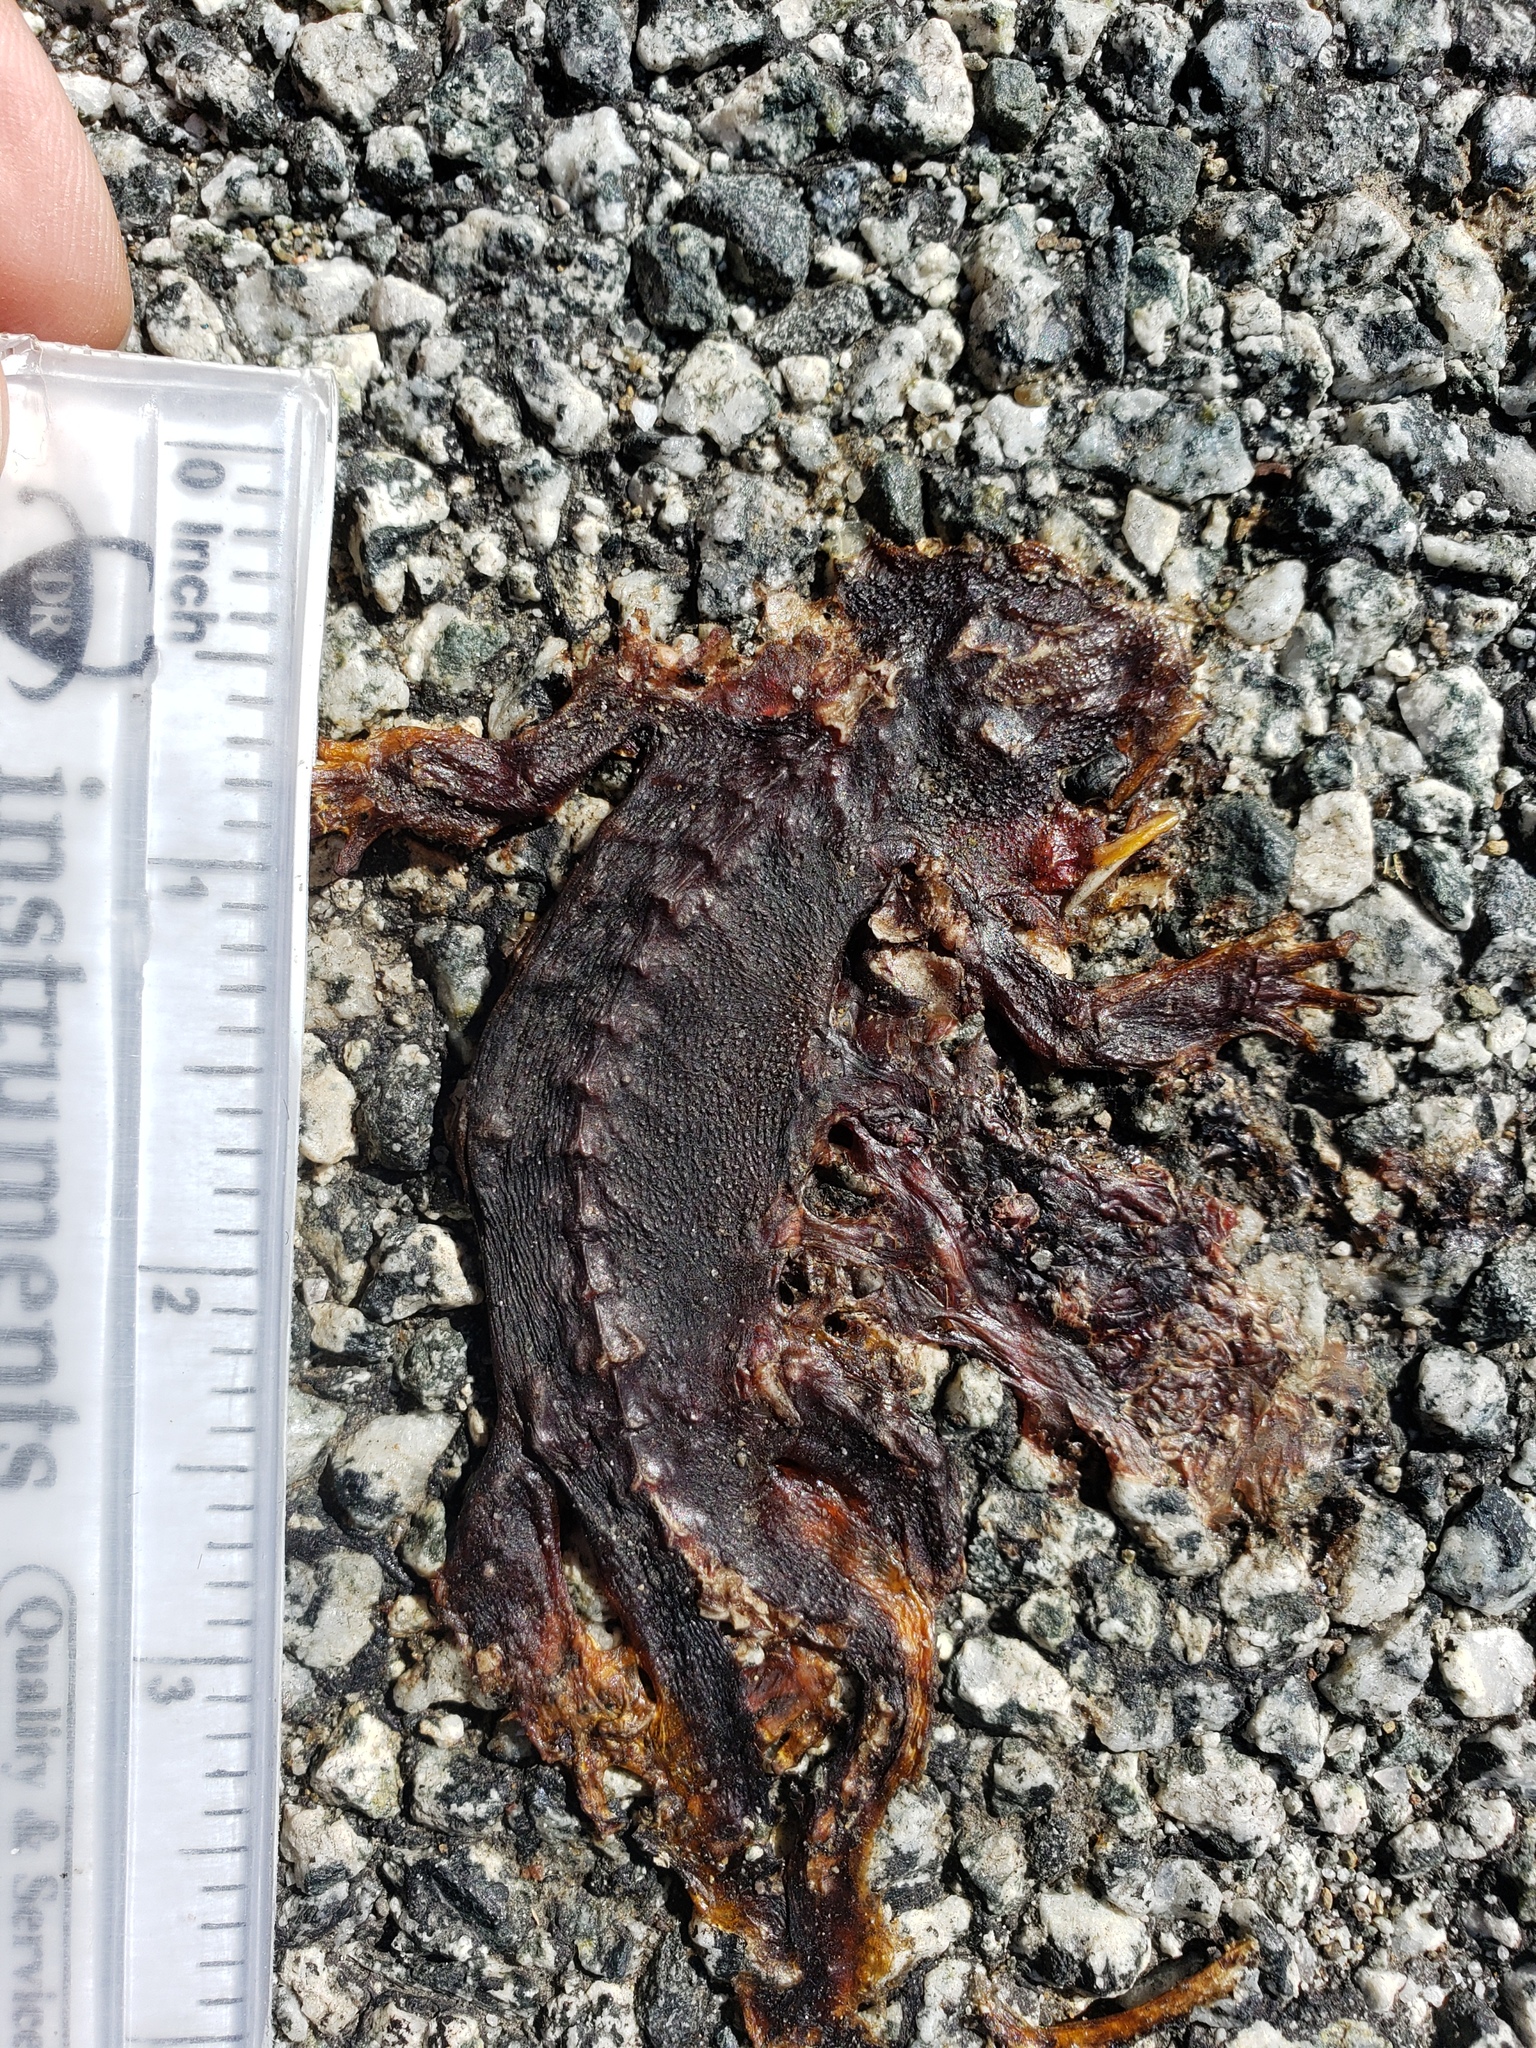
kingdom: Animalia
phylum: Chordata
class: Amphibia
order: Caudata
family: Salamandridae
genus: Taricha
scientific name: Taricha
